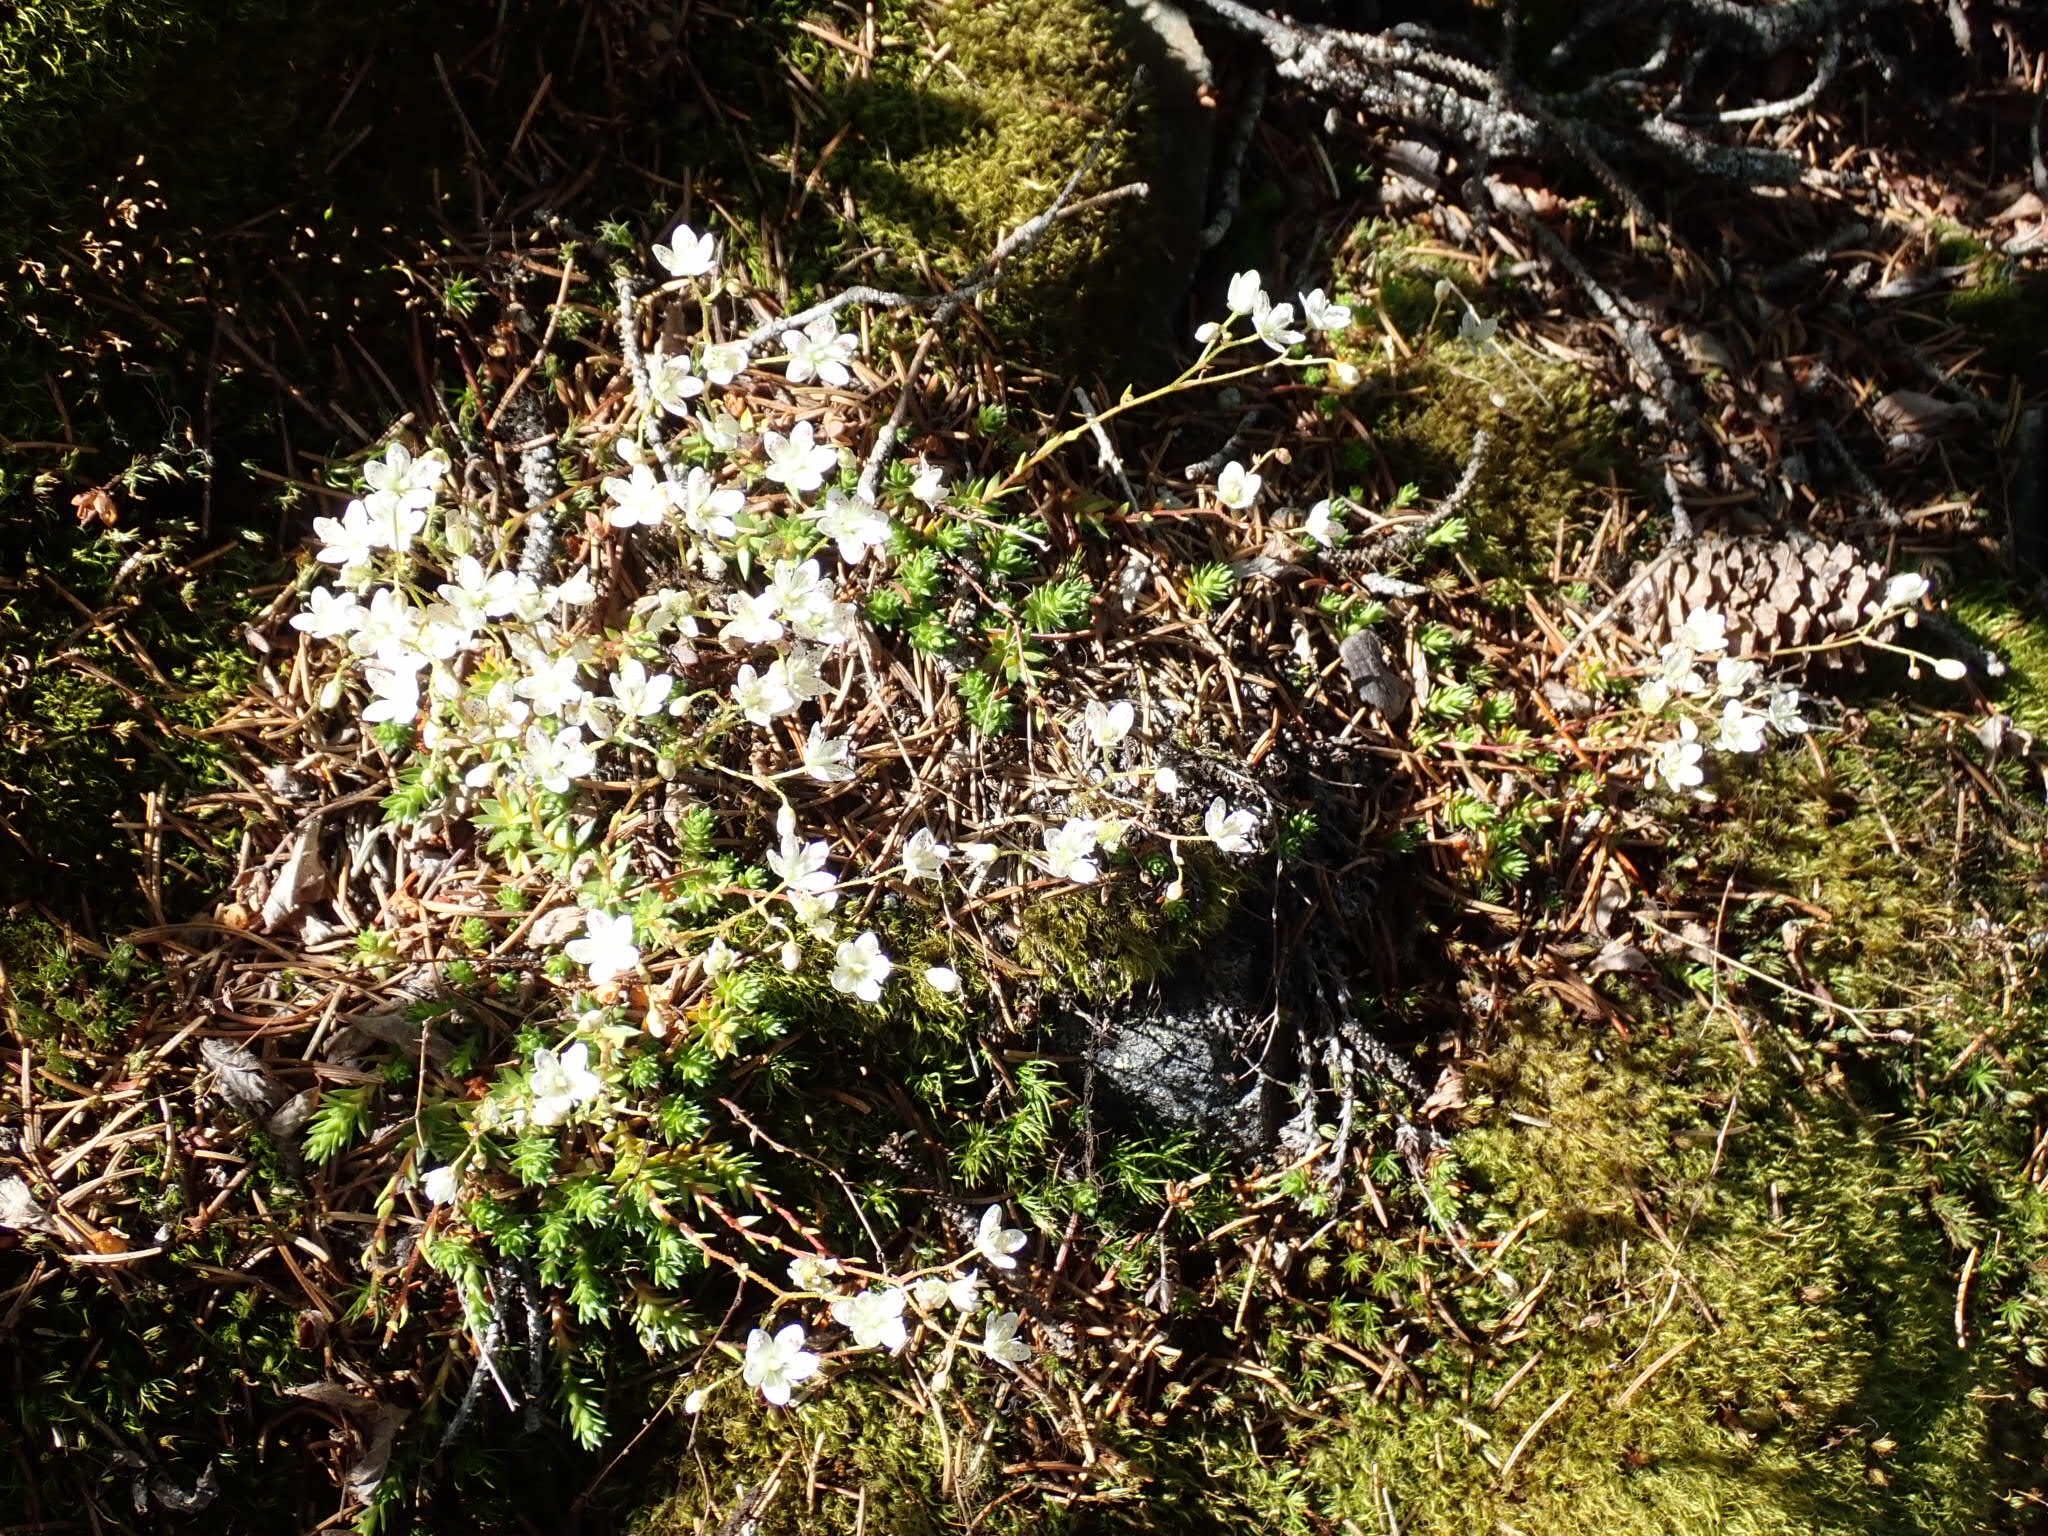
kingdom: Plantae
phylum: Tracheophyta
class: Magnoliopsida
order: Saxifragales
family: Saxifragaceae
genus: Saxifraga
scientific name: Saxifraga bronchialis
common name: Matted saxifrage
